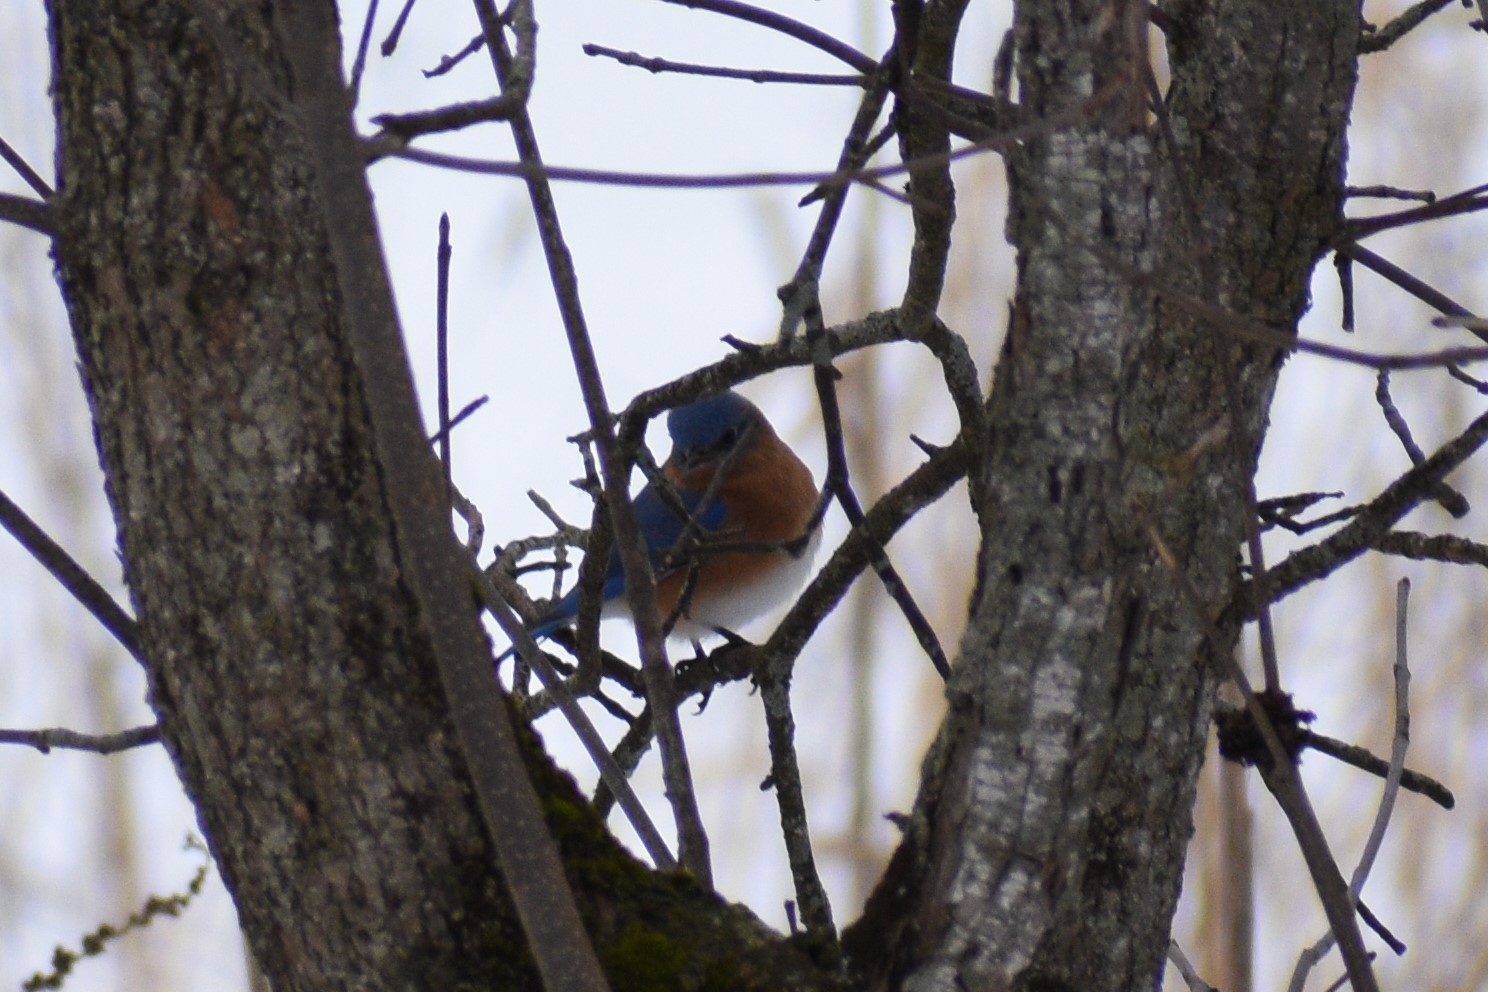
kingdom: Animalia
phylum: Chordata
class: Aves
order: Passeriformes
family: Turdidae
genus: Sialia
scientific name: Sialia sialis
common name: Eastern bluebird
